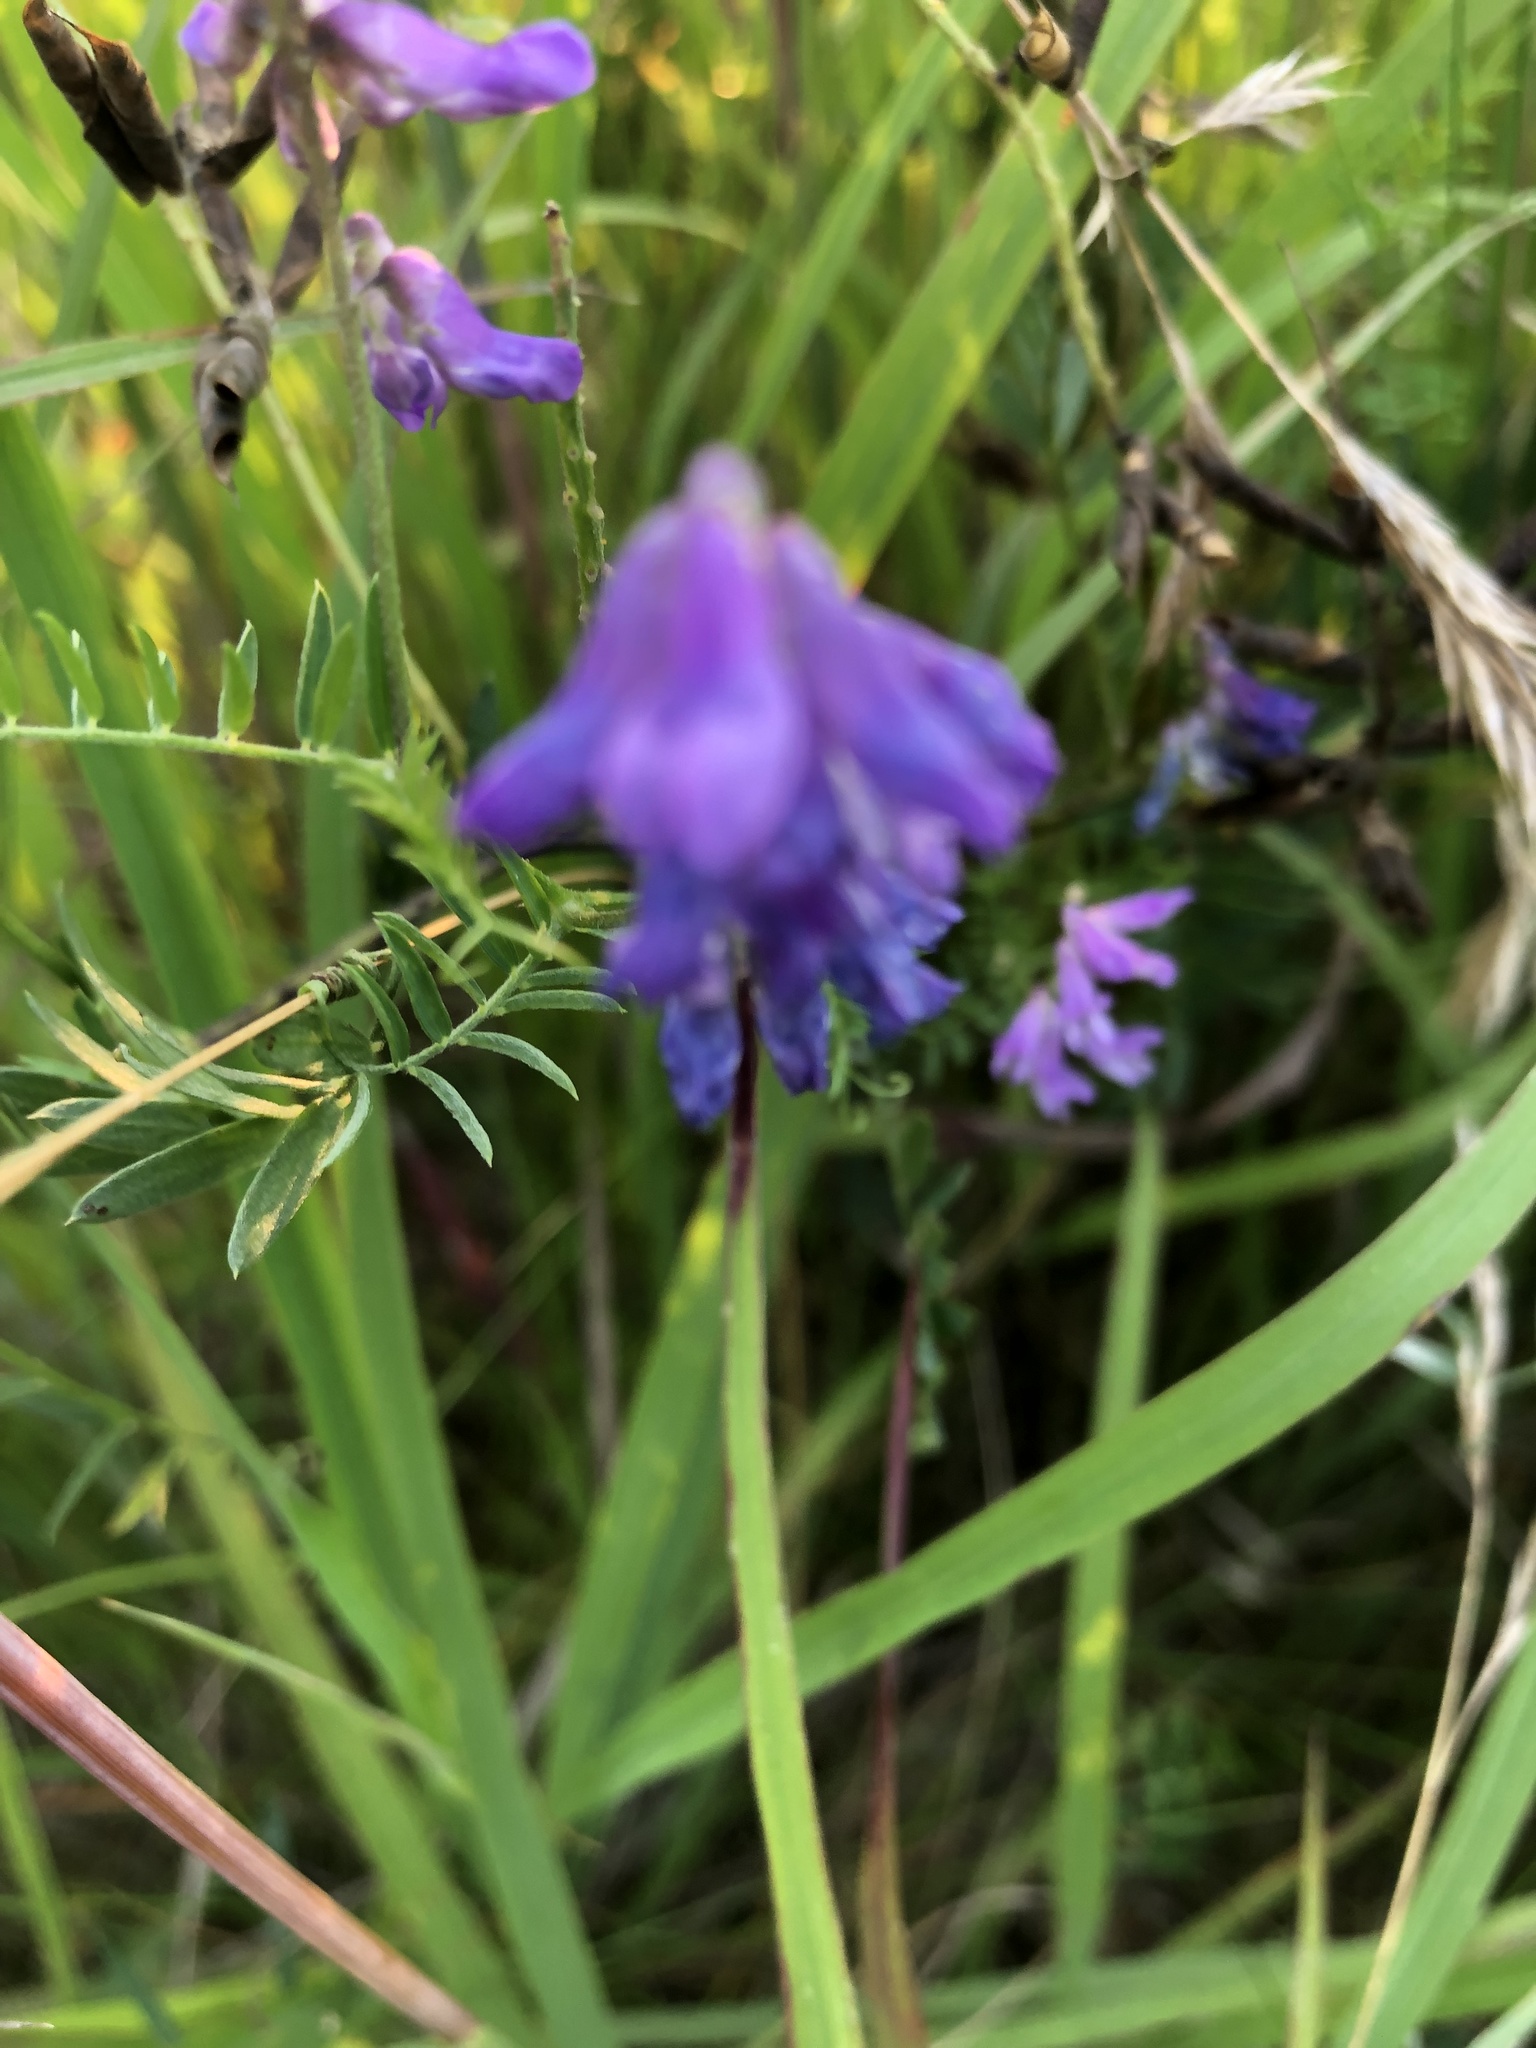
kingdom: Plantae
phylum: Tracheophyta
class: Magnoliopsida
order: Fabales
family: Fabaceae
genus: Vicia
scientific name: Vicia cracca
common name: Bird vetch
